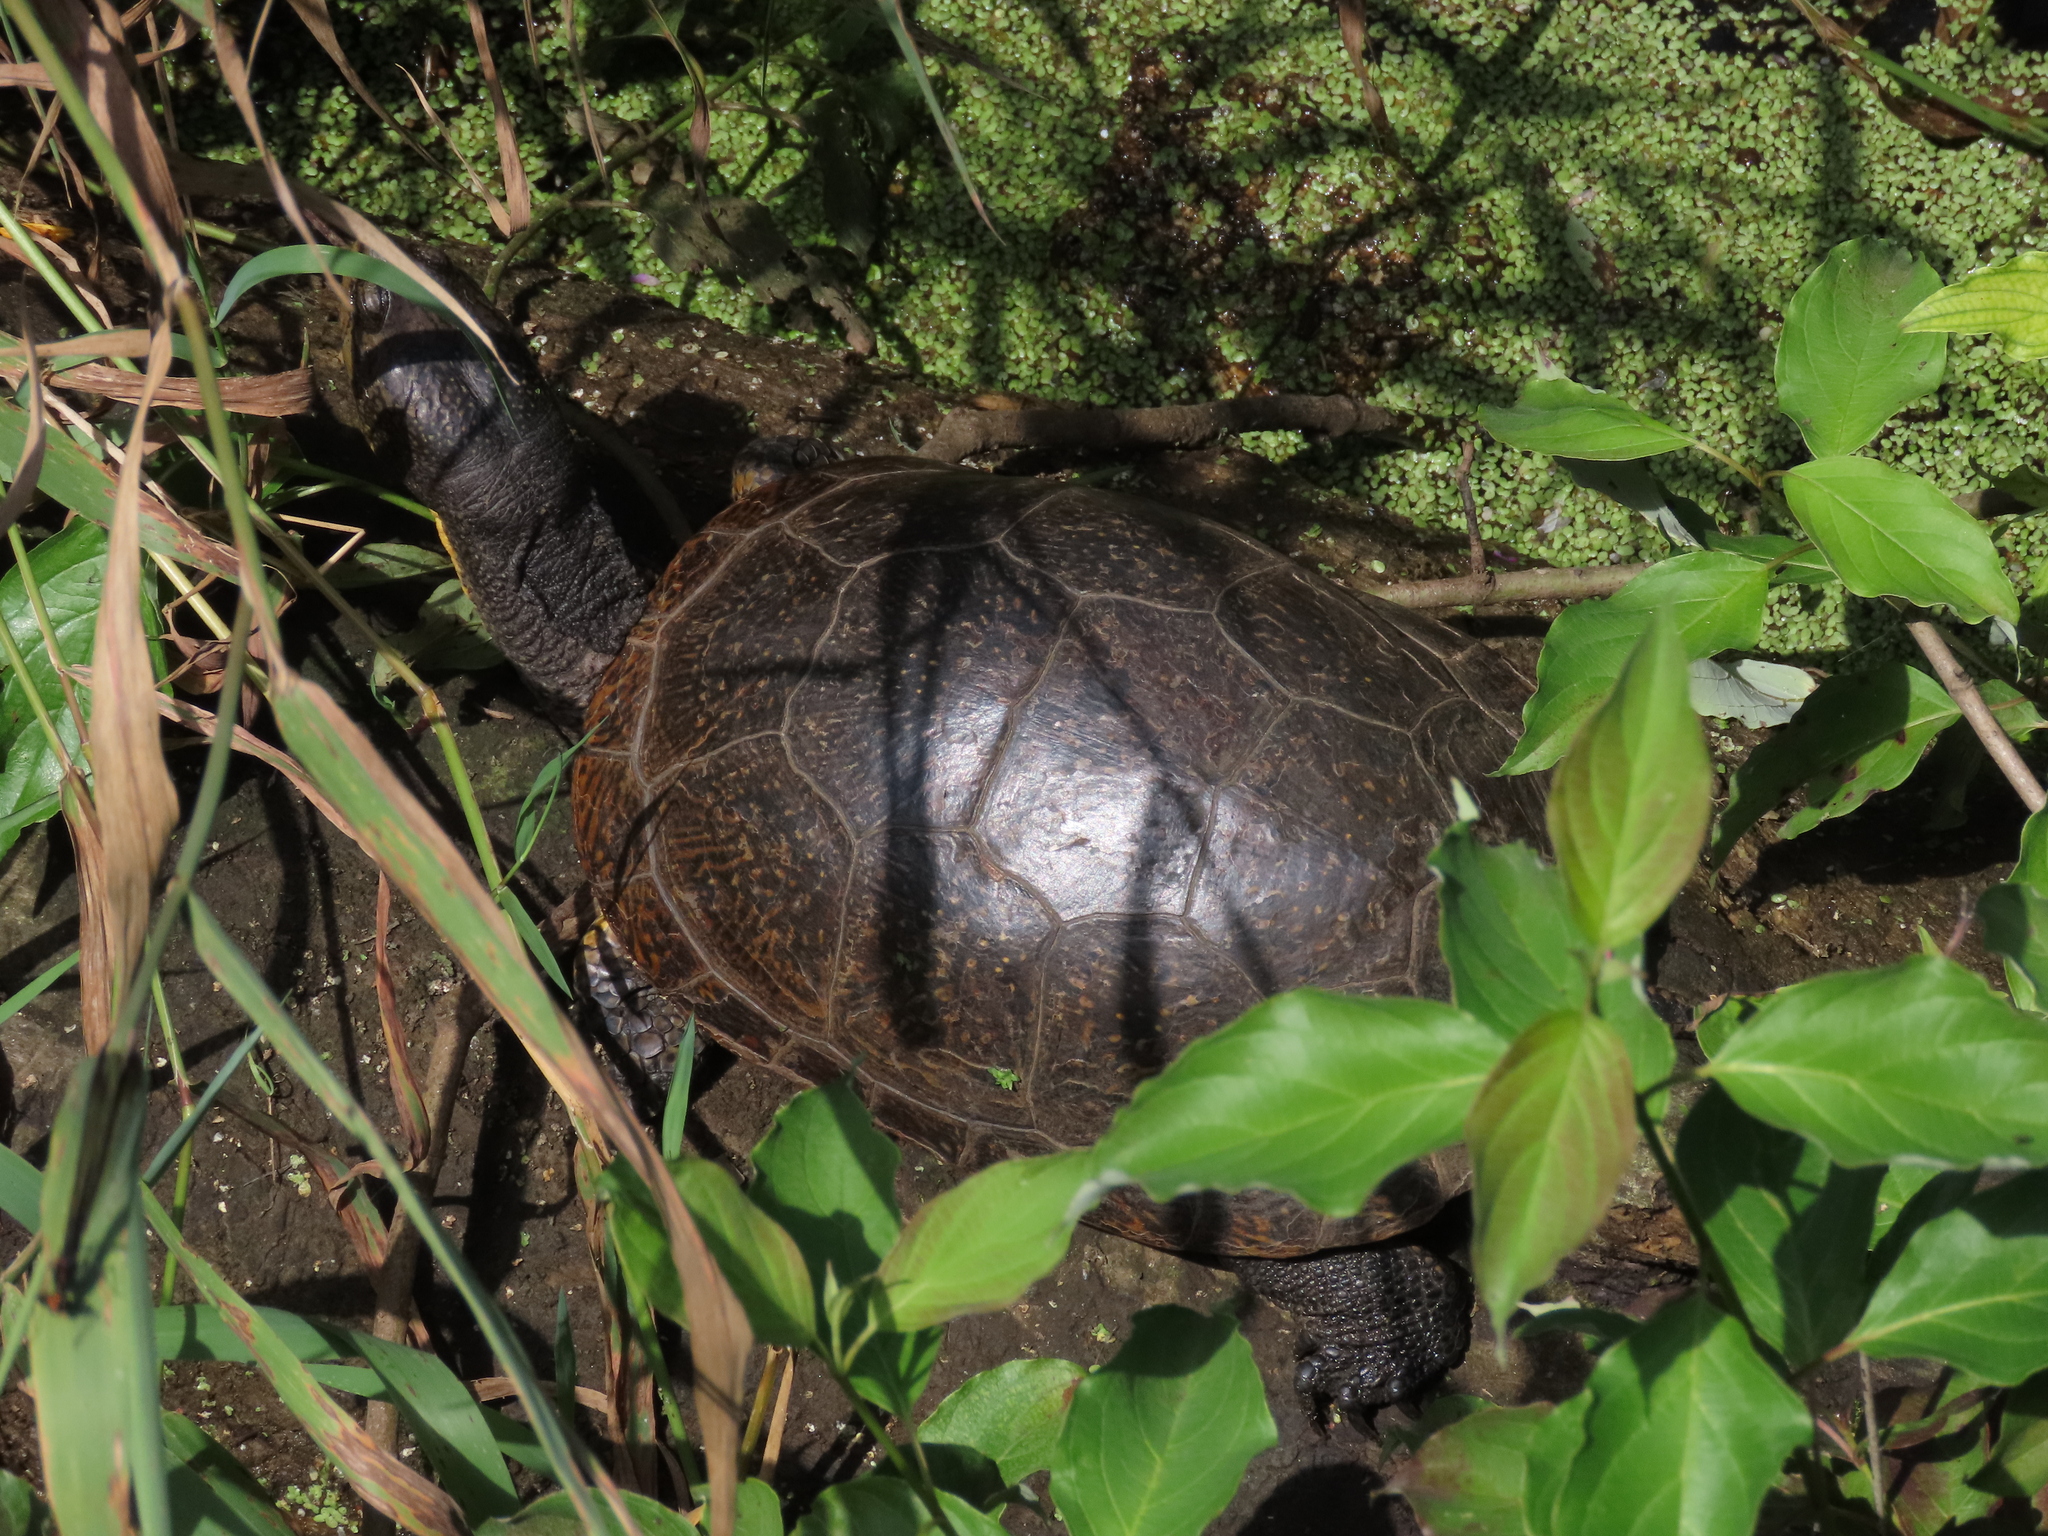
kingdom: Animalia
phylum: Chordata
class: Testudines
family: Emydidae
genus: Emys
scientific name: Emys blandingii
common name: Blanding's turtle
